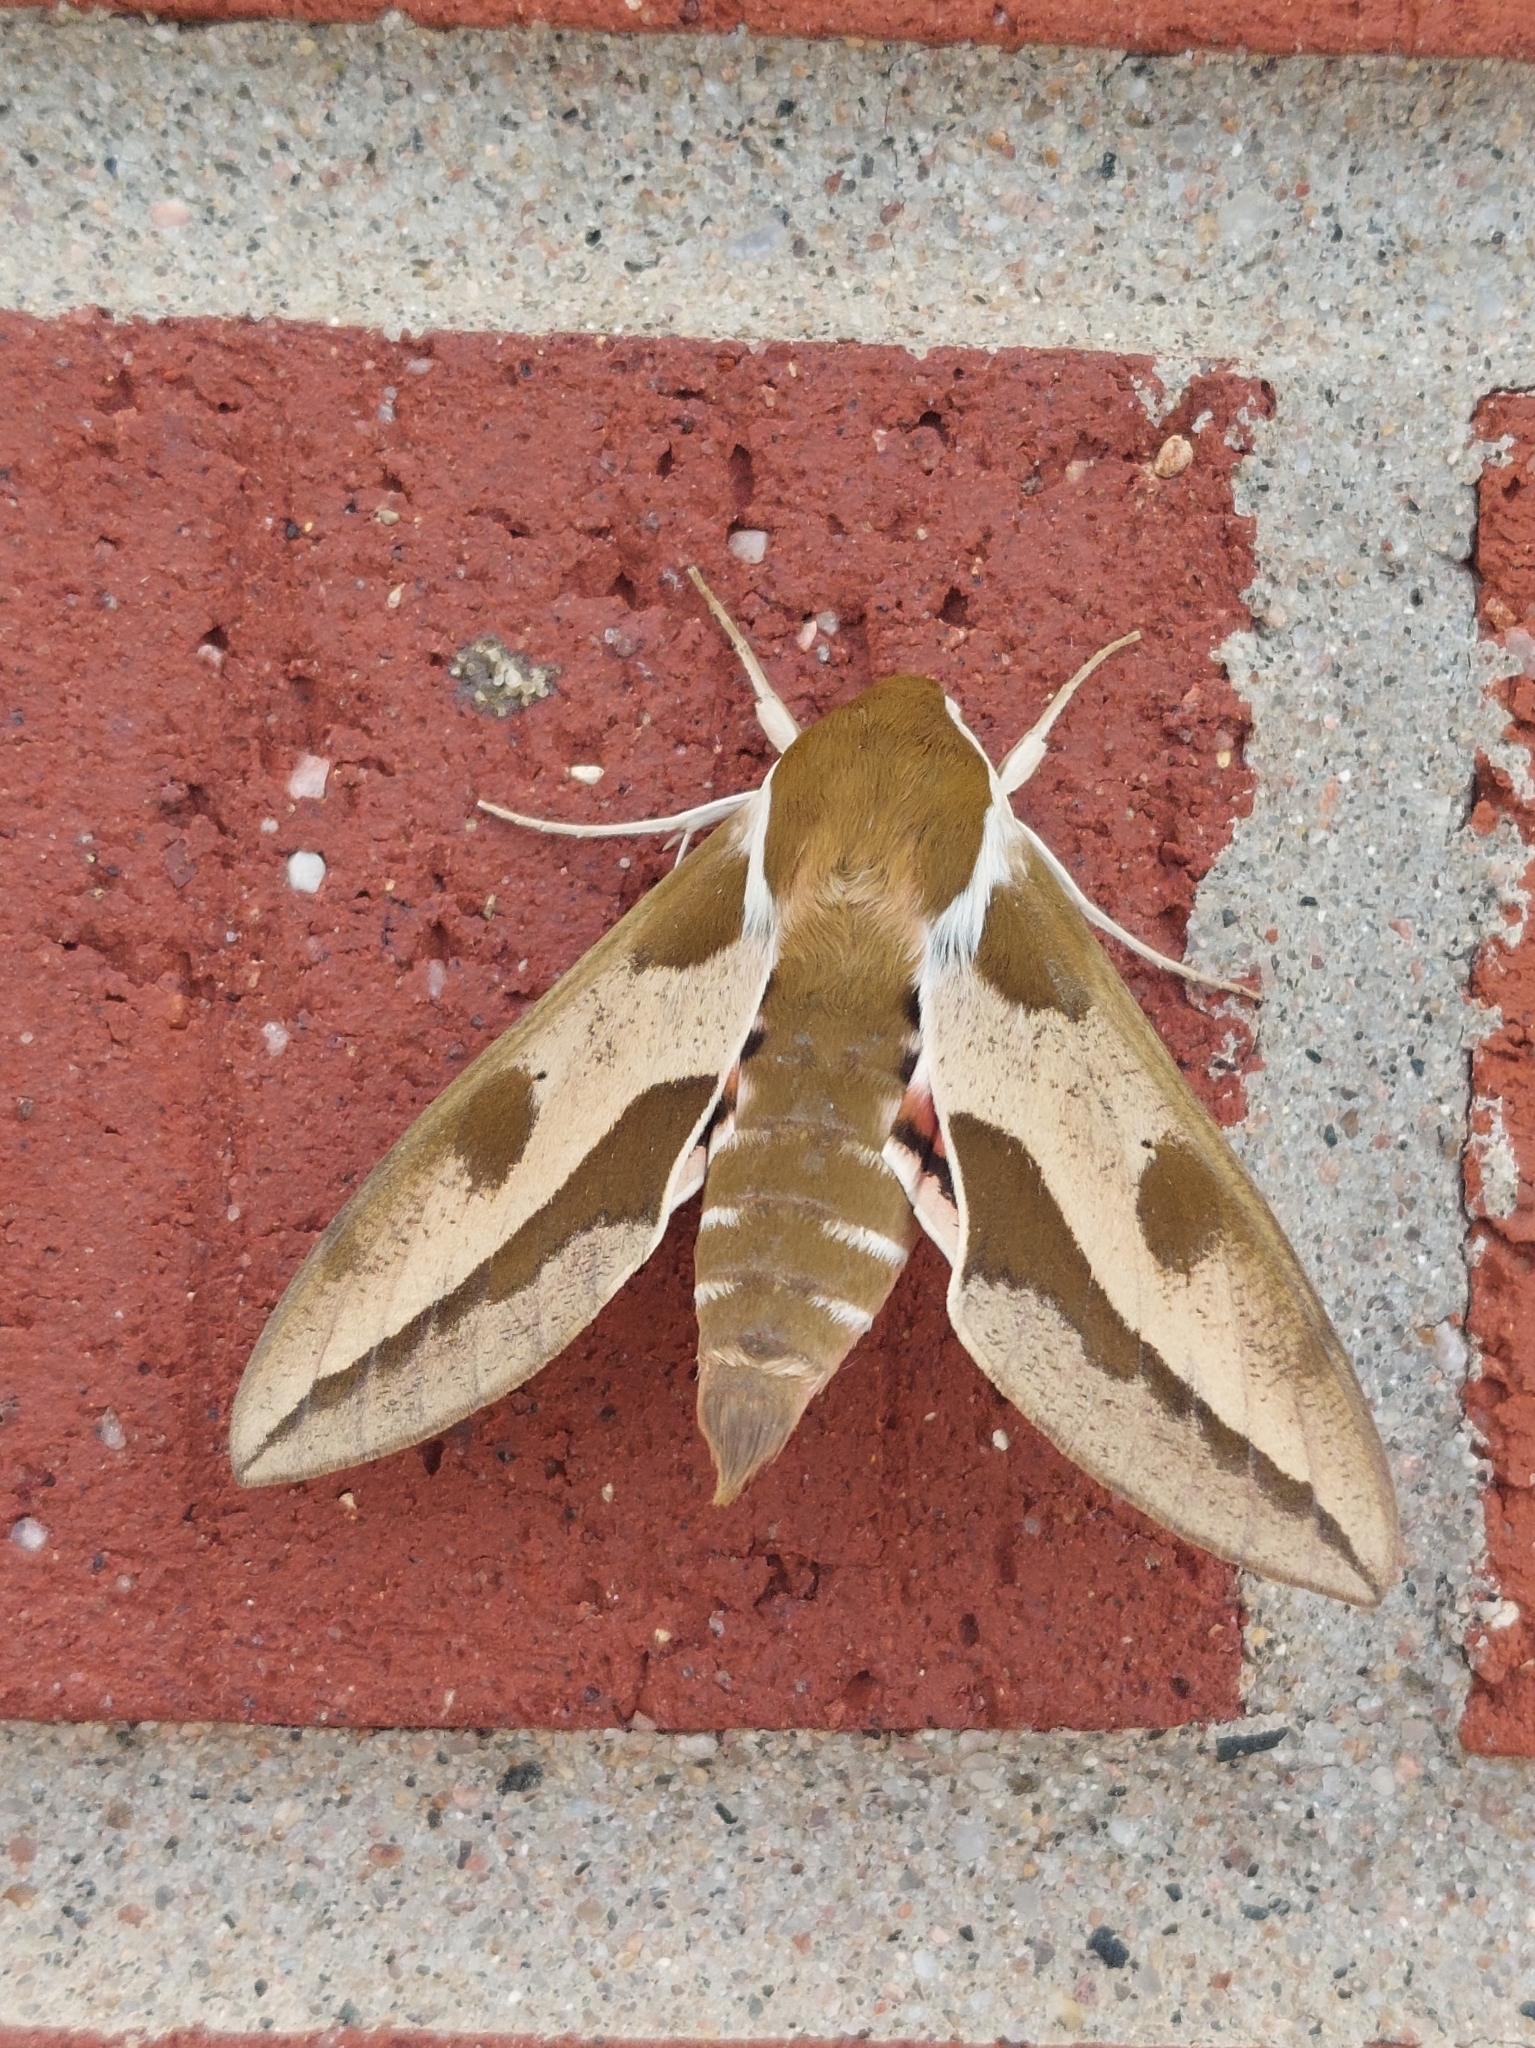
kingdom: Animalia
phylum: Arthropoda
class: Insecta
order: Lepidoptera
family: Sphingidae
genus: Hyles
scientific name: Hyles euphorbiae
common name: Spurge hawk-moth
